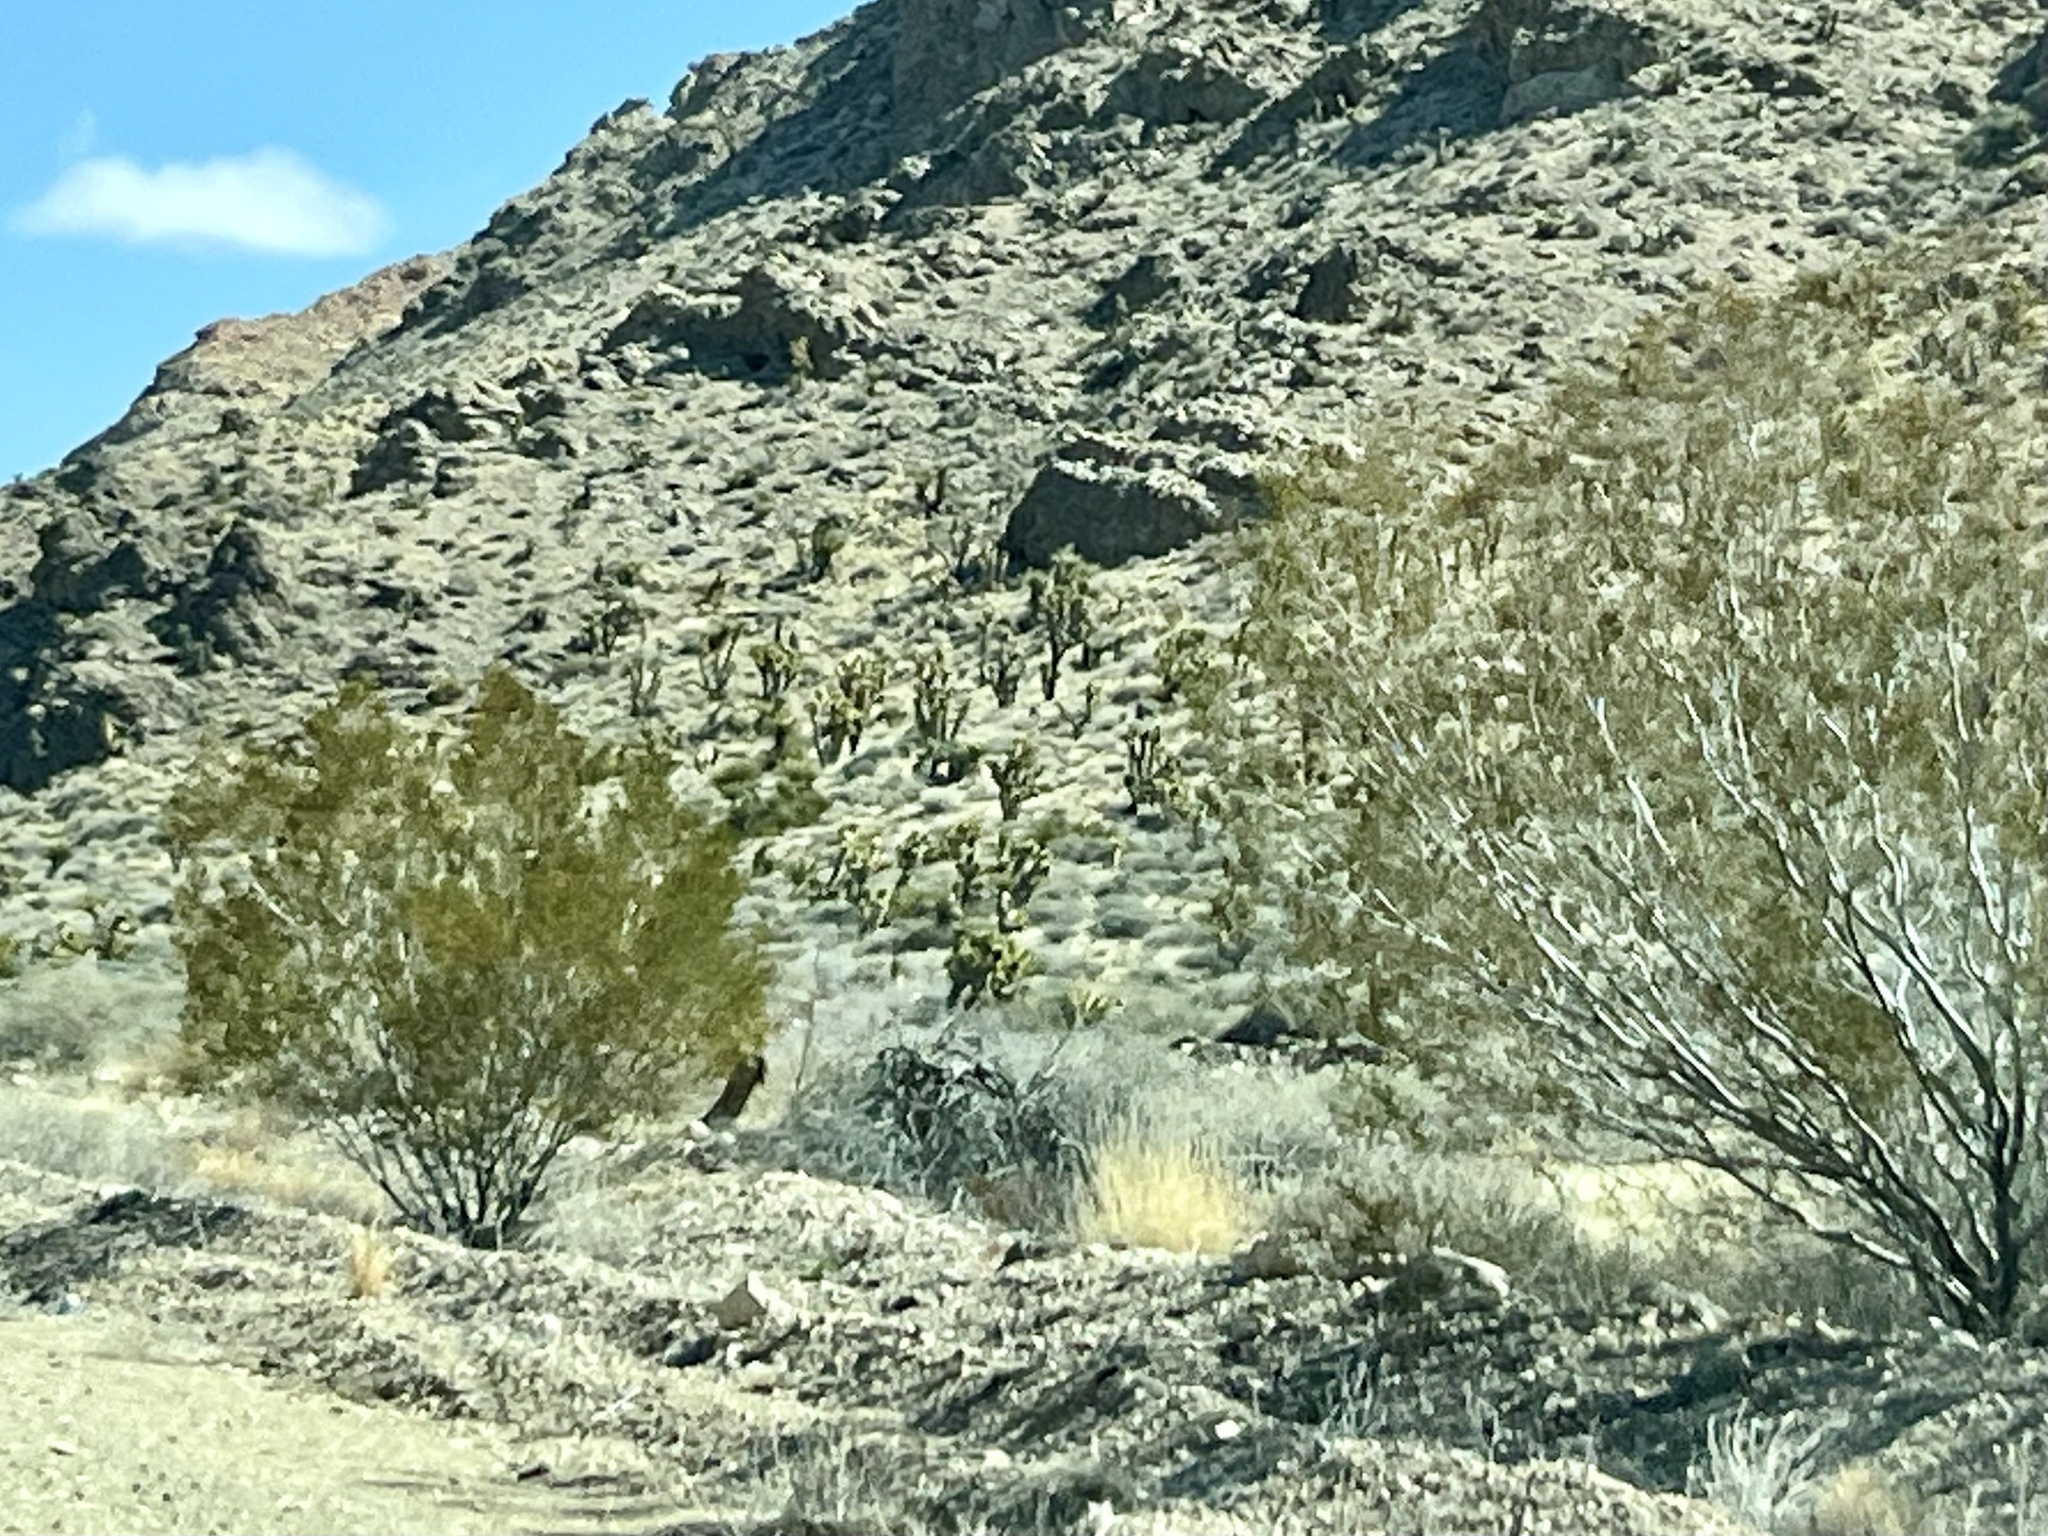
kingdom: Plantae
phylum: Tracheophyta
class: Magnoliopsida
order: Zygophyllales
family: Zygophyllaceae
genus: Larrea
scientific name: Larrea tridentata
